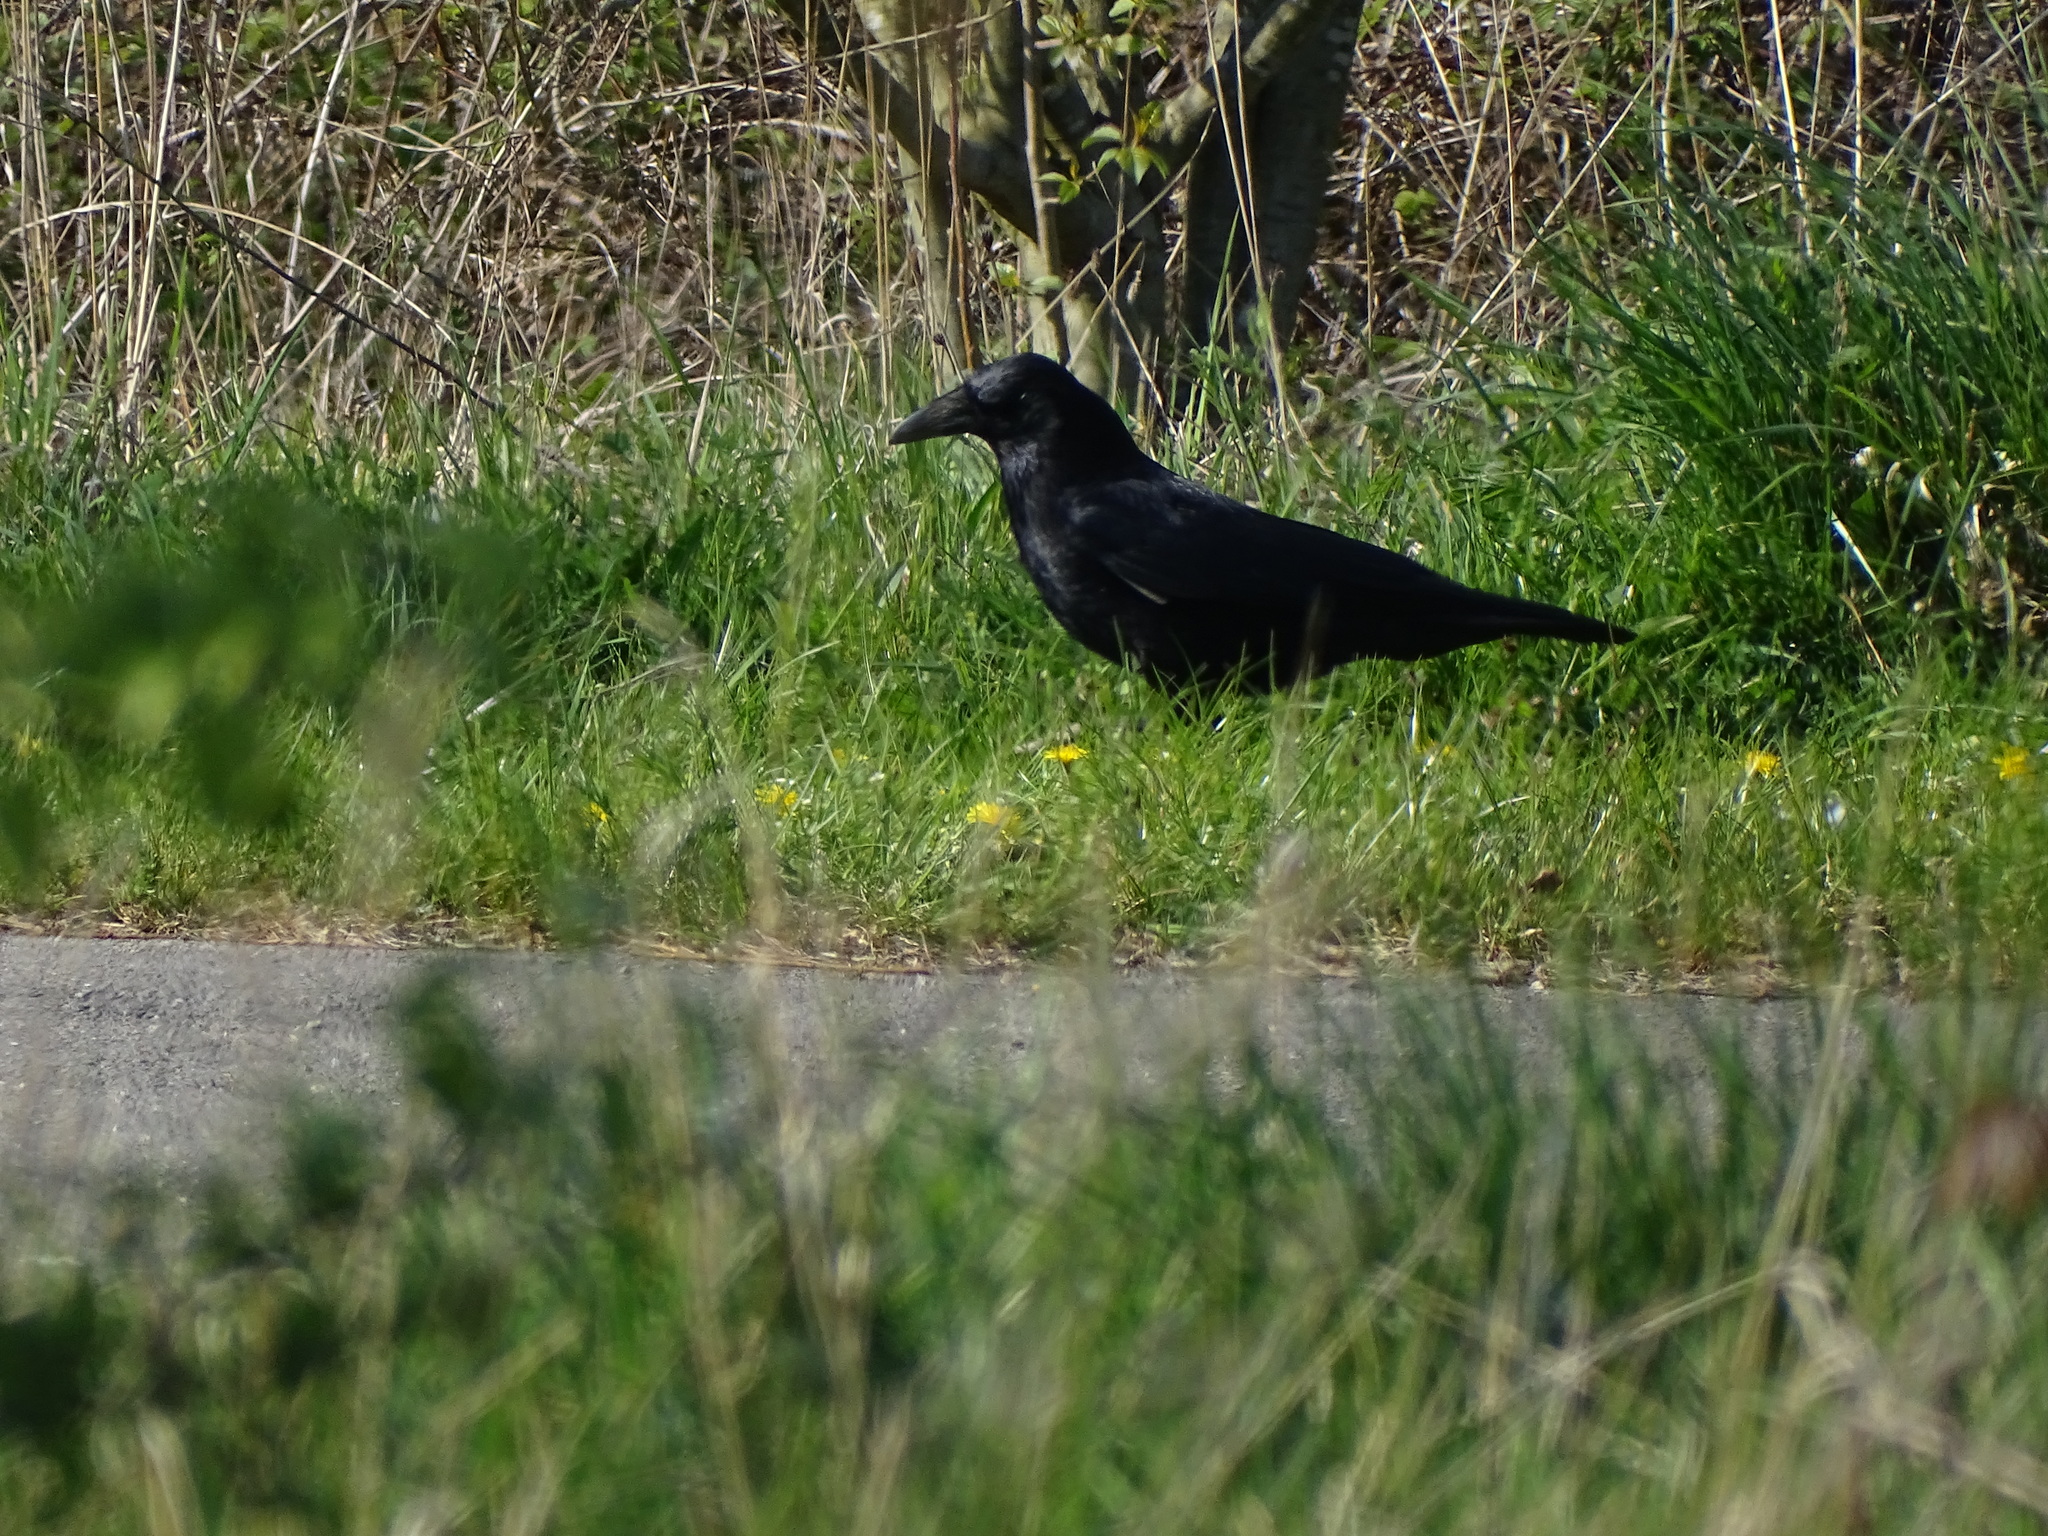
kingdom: Animalia
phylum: Chordata
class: Aves
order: Passeriformes
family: Corvidae
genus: Corvus
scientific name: Corvus corone
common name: Carrion crow
